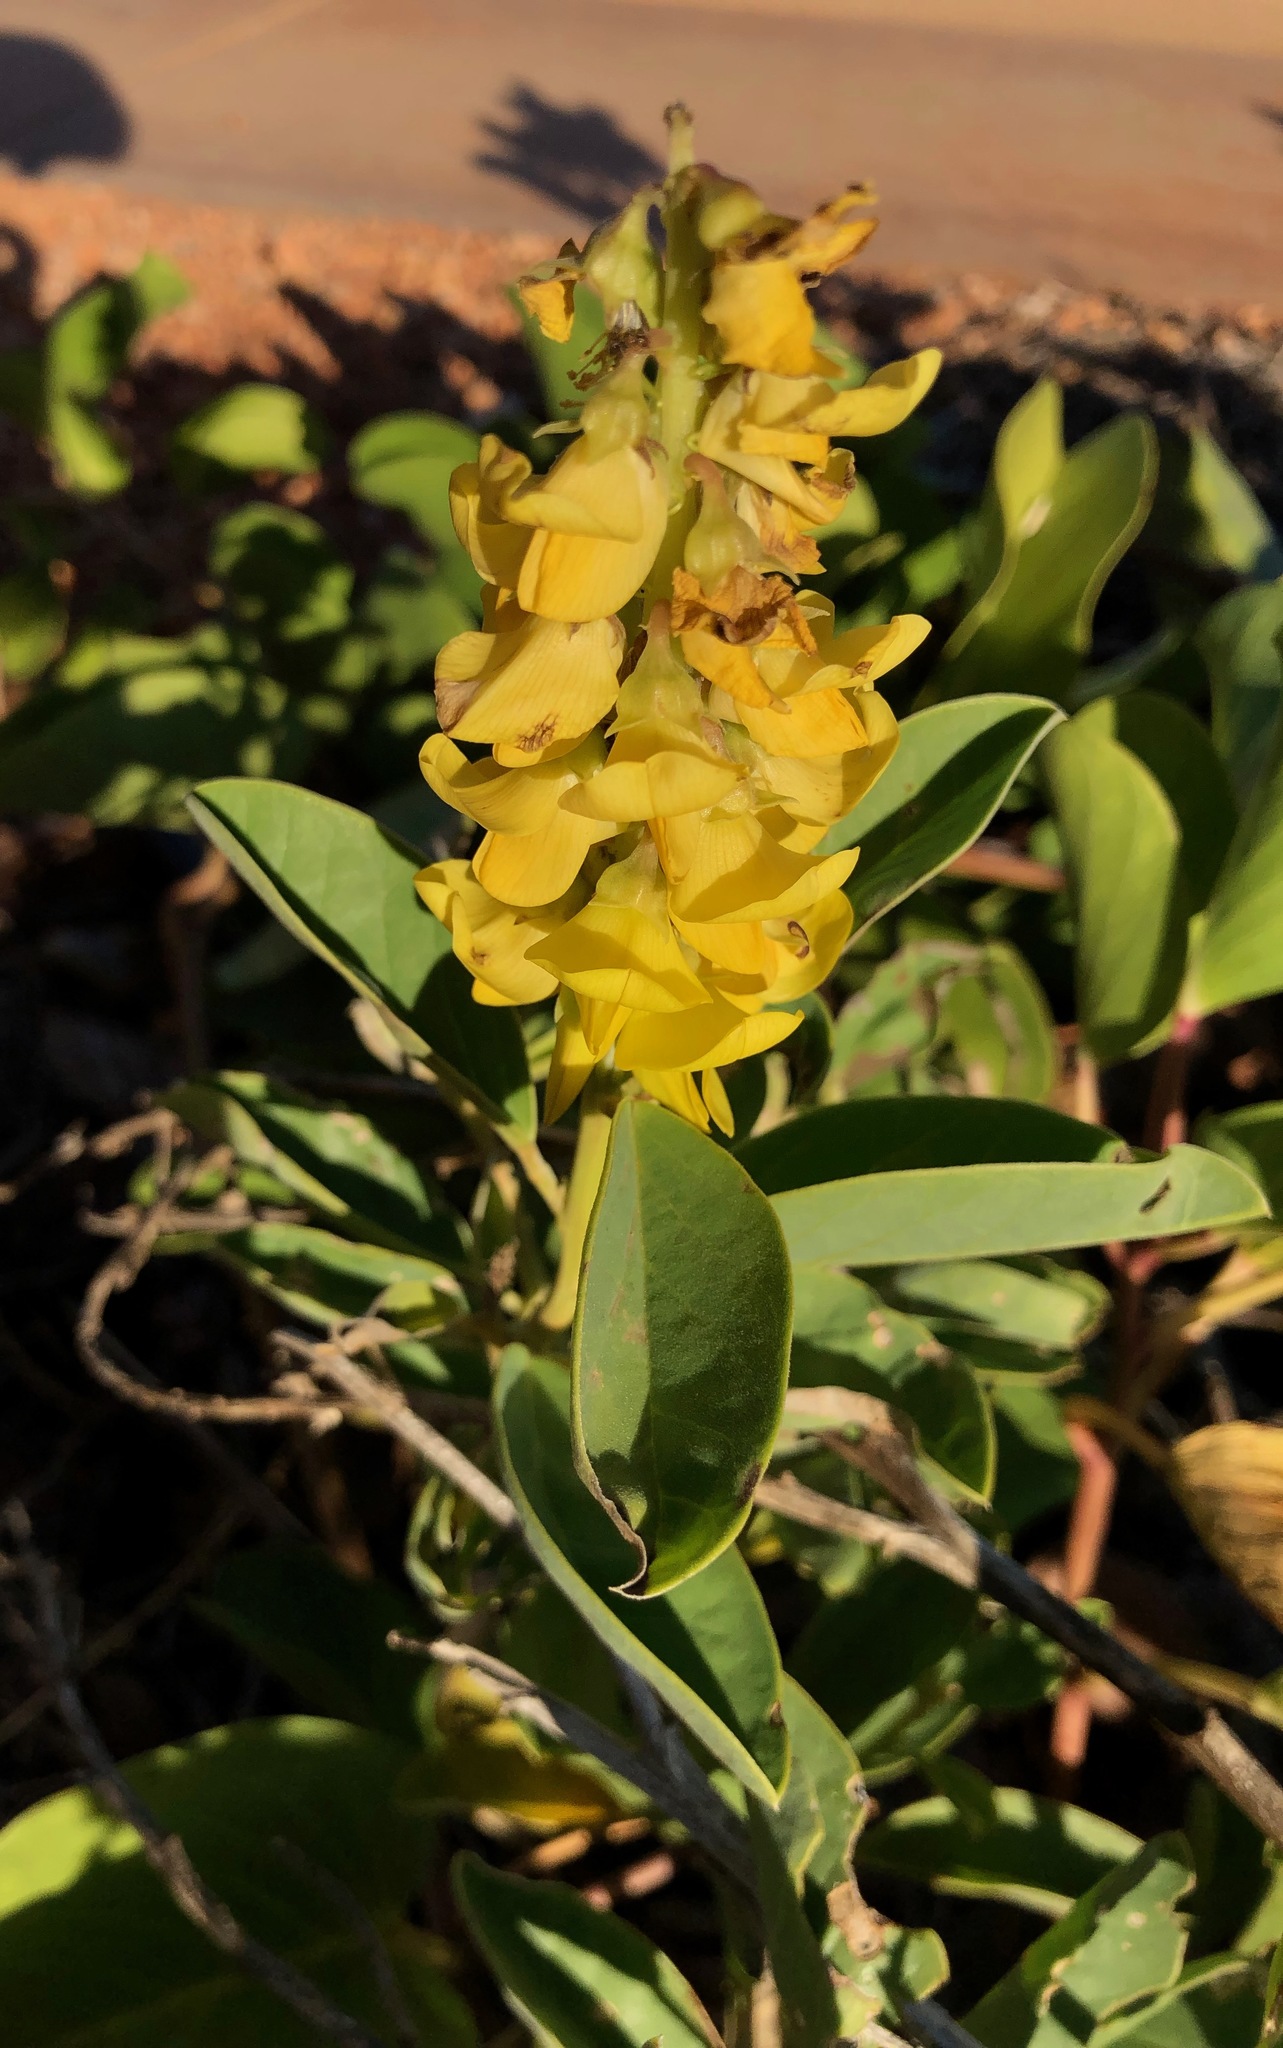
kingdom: Plantae
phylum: Tracheophyta
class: Magnoliopsida
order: Fabales
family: Fabaceae
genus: Crotalaria
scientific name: Crotalaria novae-hollandiae
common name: New holland rattlepod
